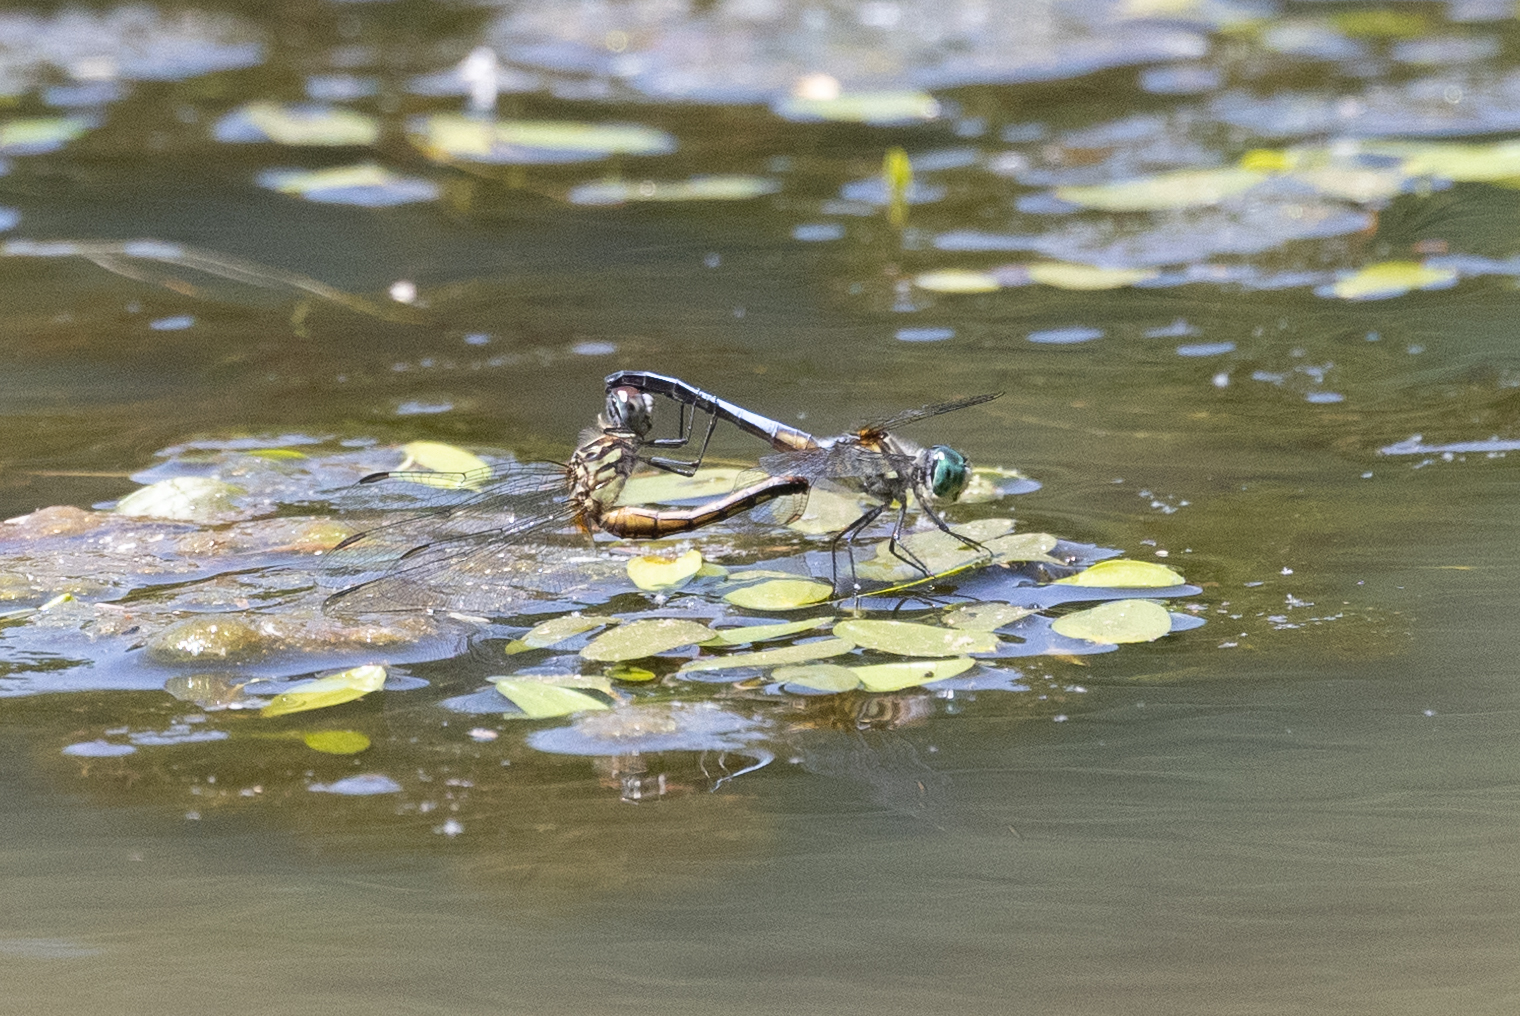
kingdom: Animalia
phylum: Arthropoda
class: Insecta
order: Odonata
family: Libellulidae
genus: Pachydiplax
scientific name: Pachydiplax longipennis
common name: Blue dasher
